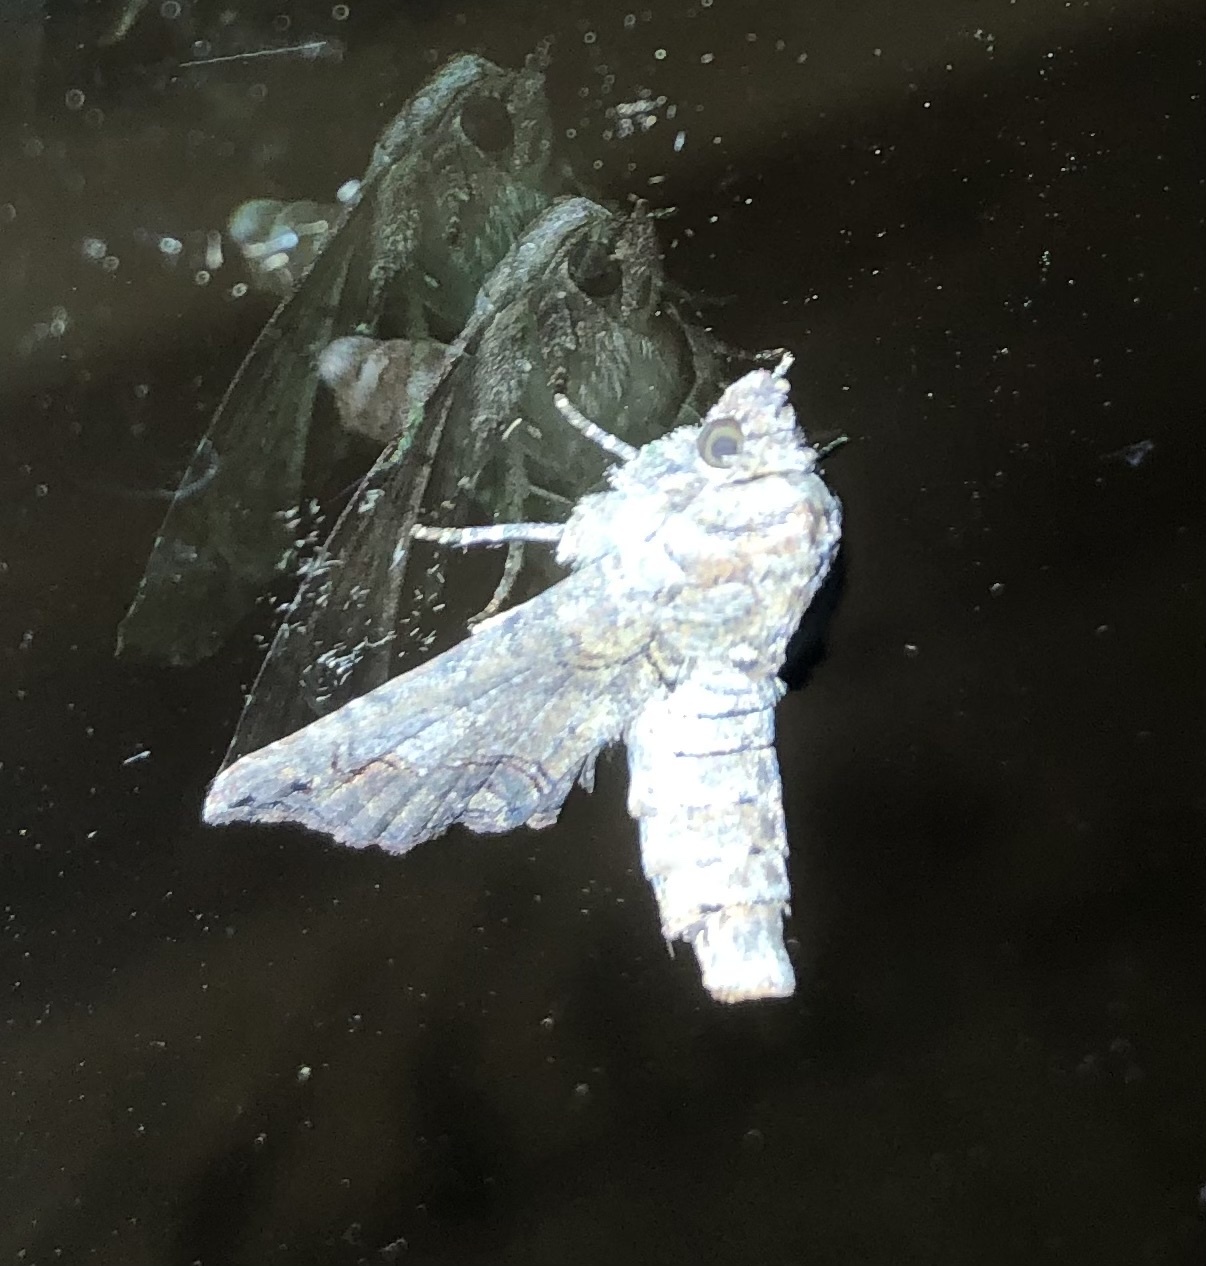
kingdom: Animalia
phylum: Arthropoda
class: Insecta
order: Lepidoptera
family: Euteliidae
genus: Paectes
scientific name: Paectes abrostoloides
